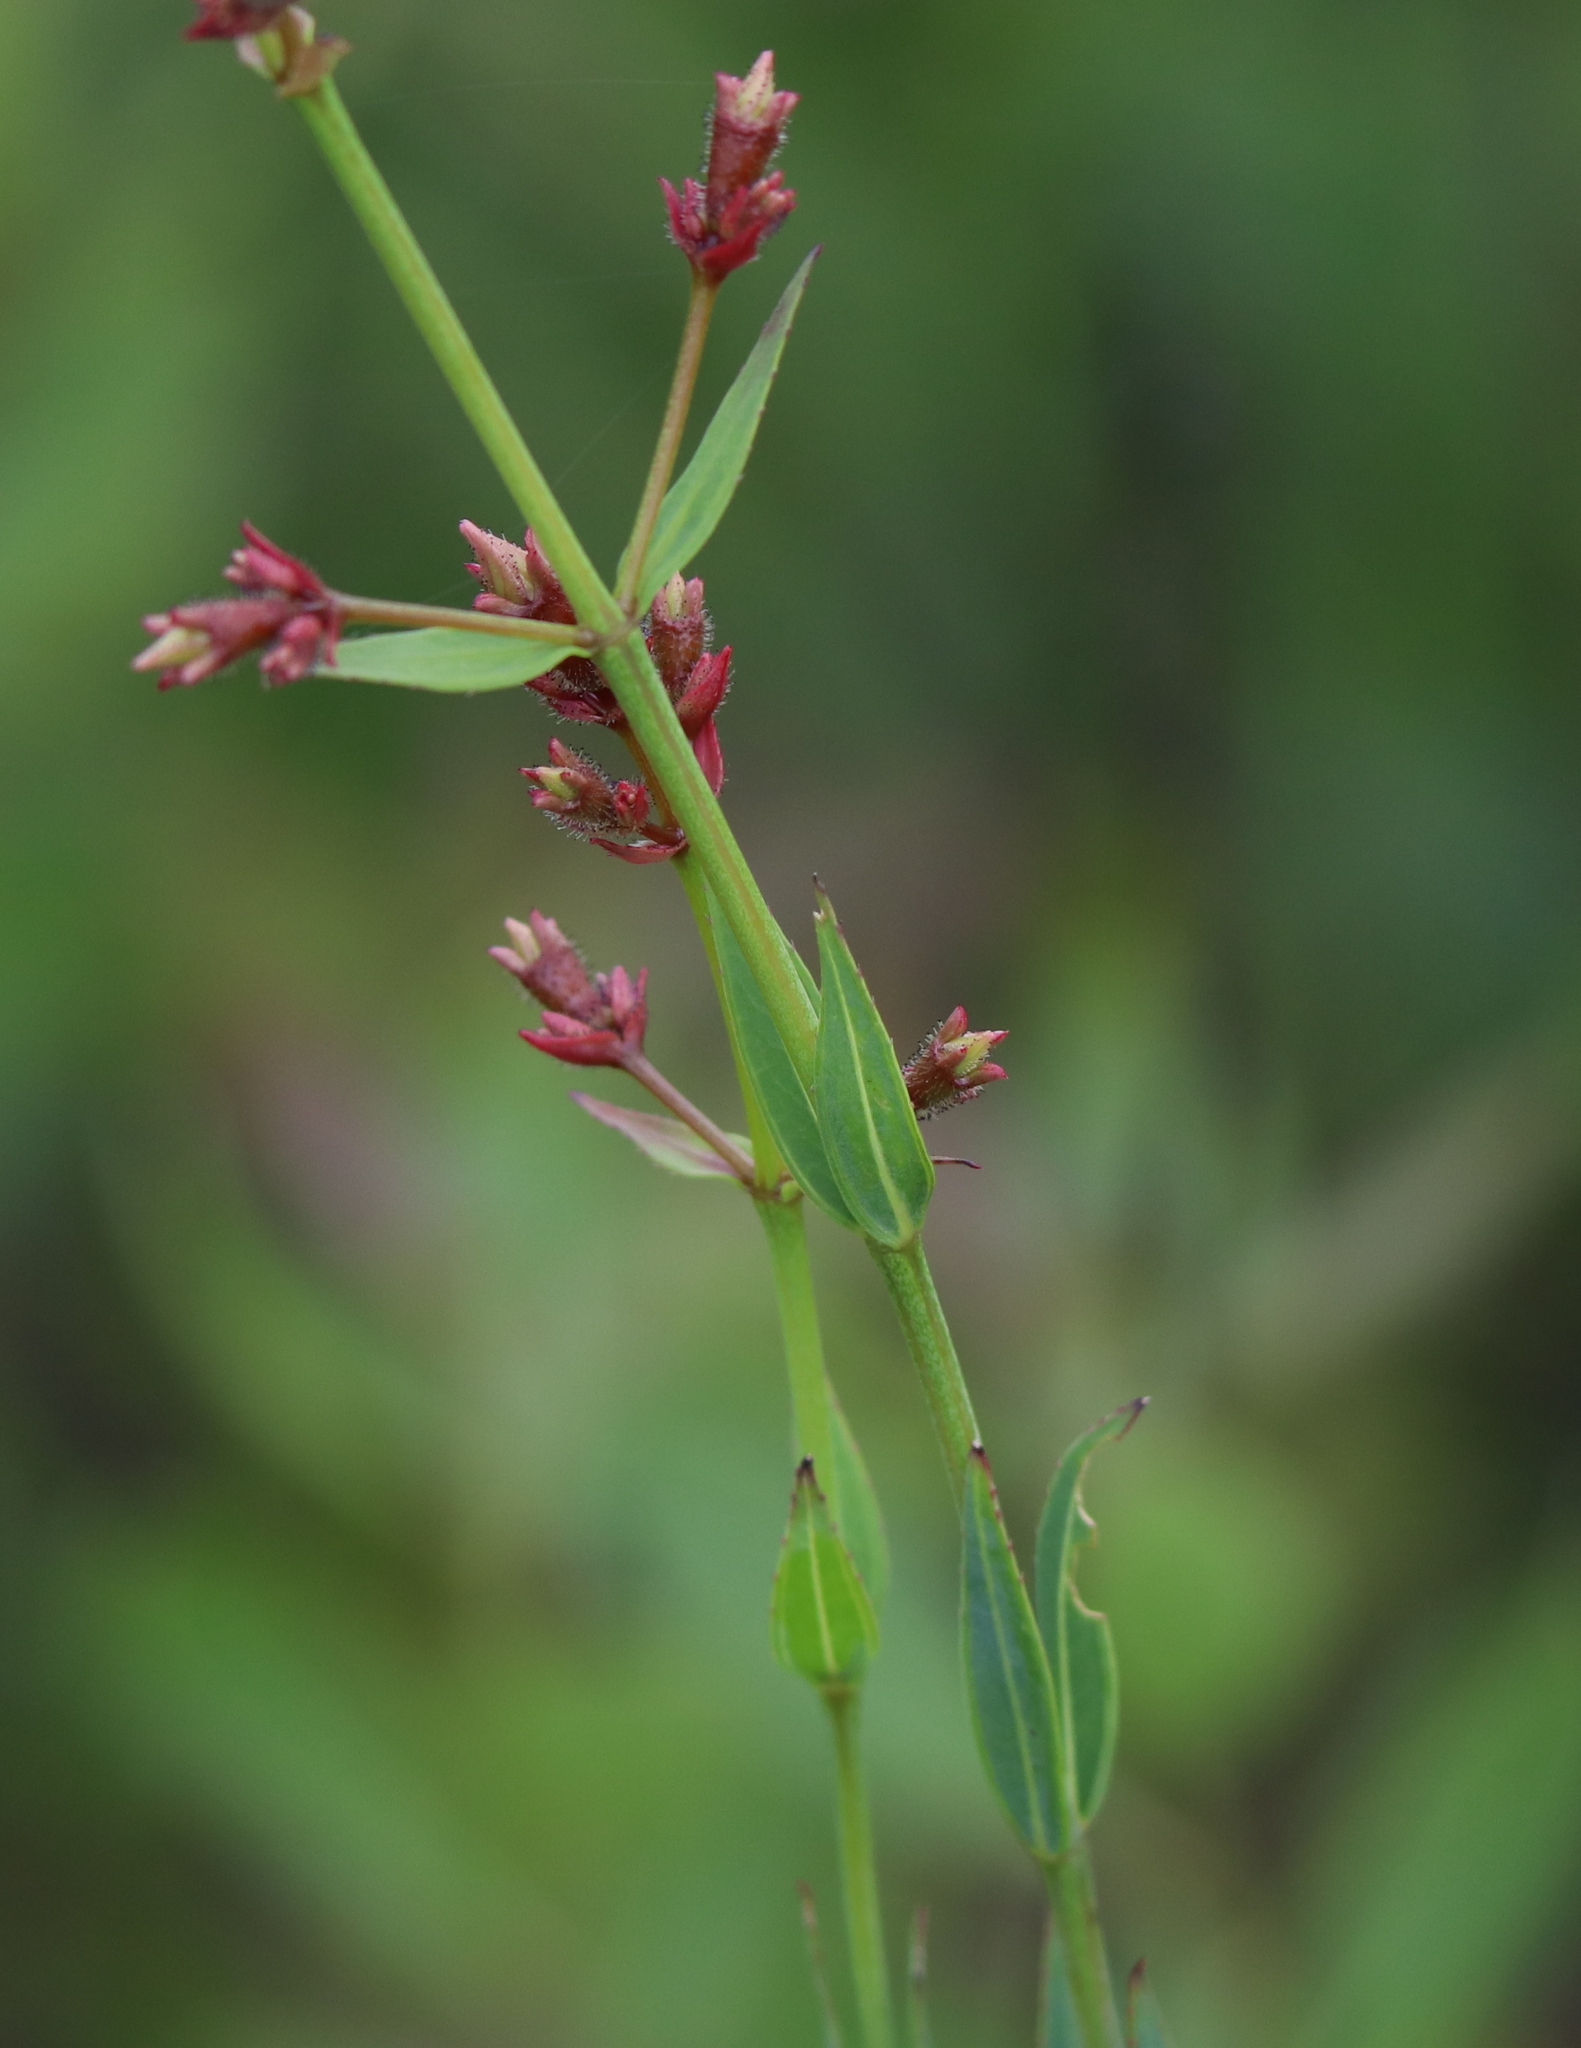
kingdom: Plantae
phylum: Tracheophyta
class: Magnoliopsida
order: Myrtales
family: Melastomataceae
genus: Rhexia
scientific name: Rhexia alifanus
